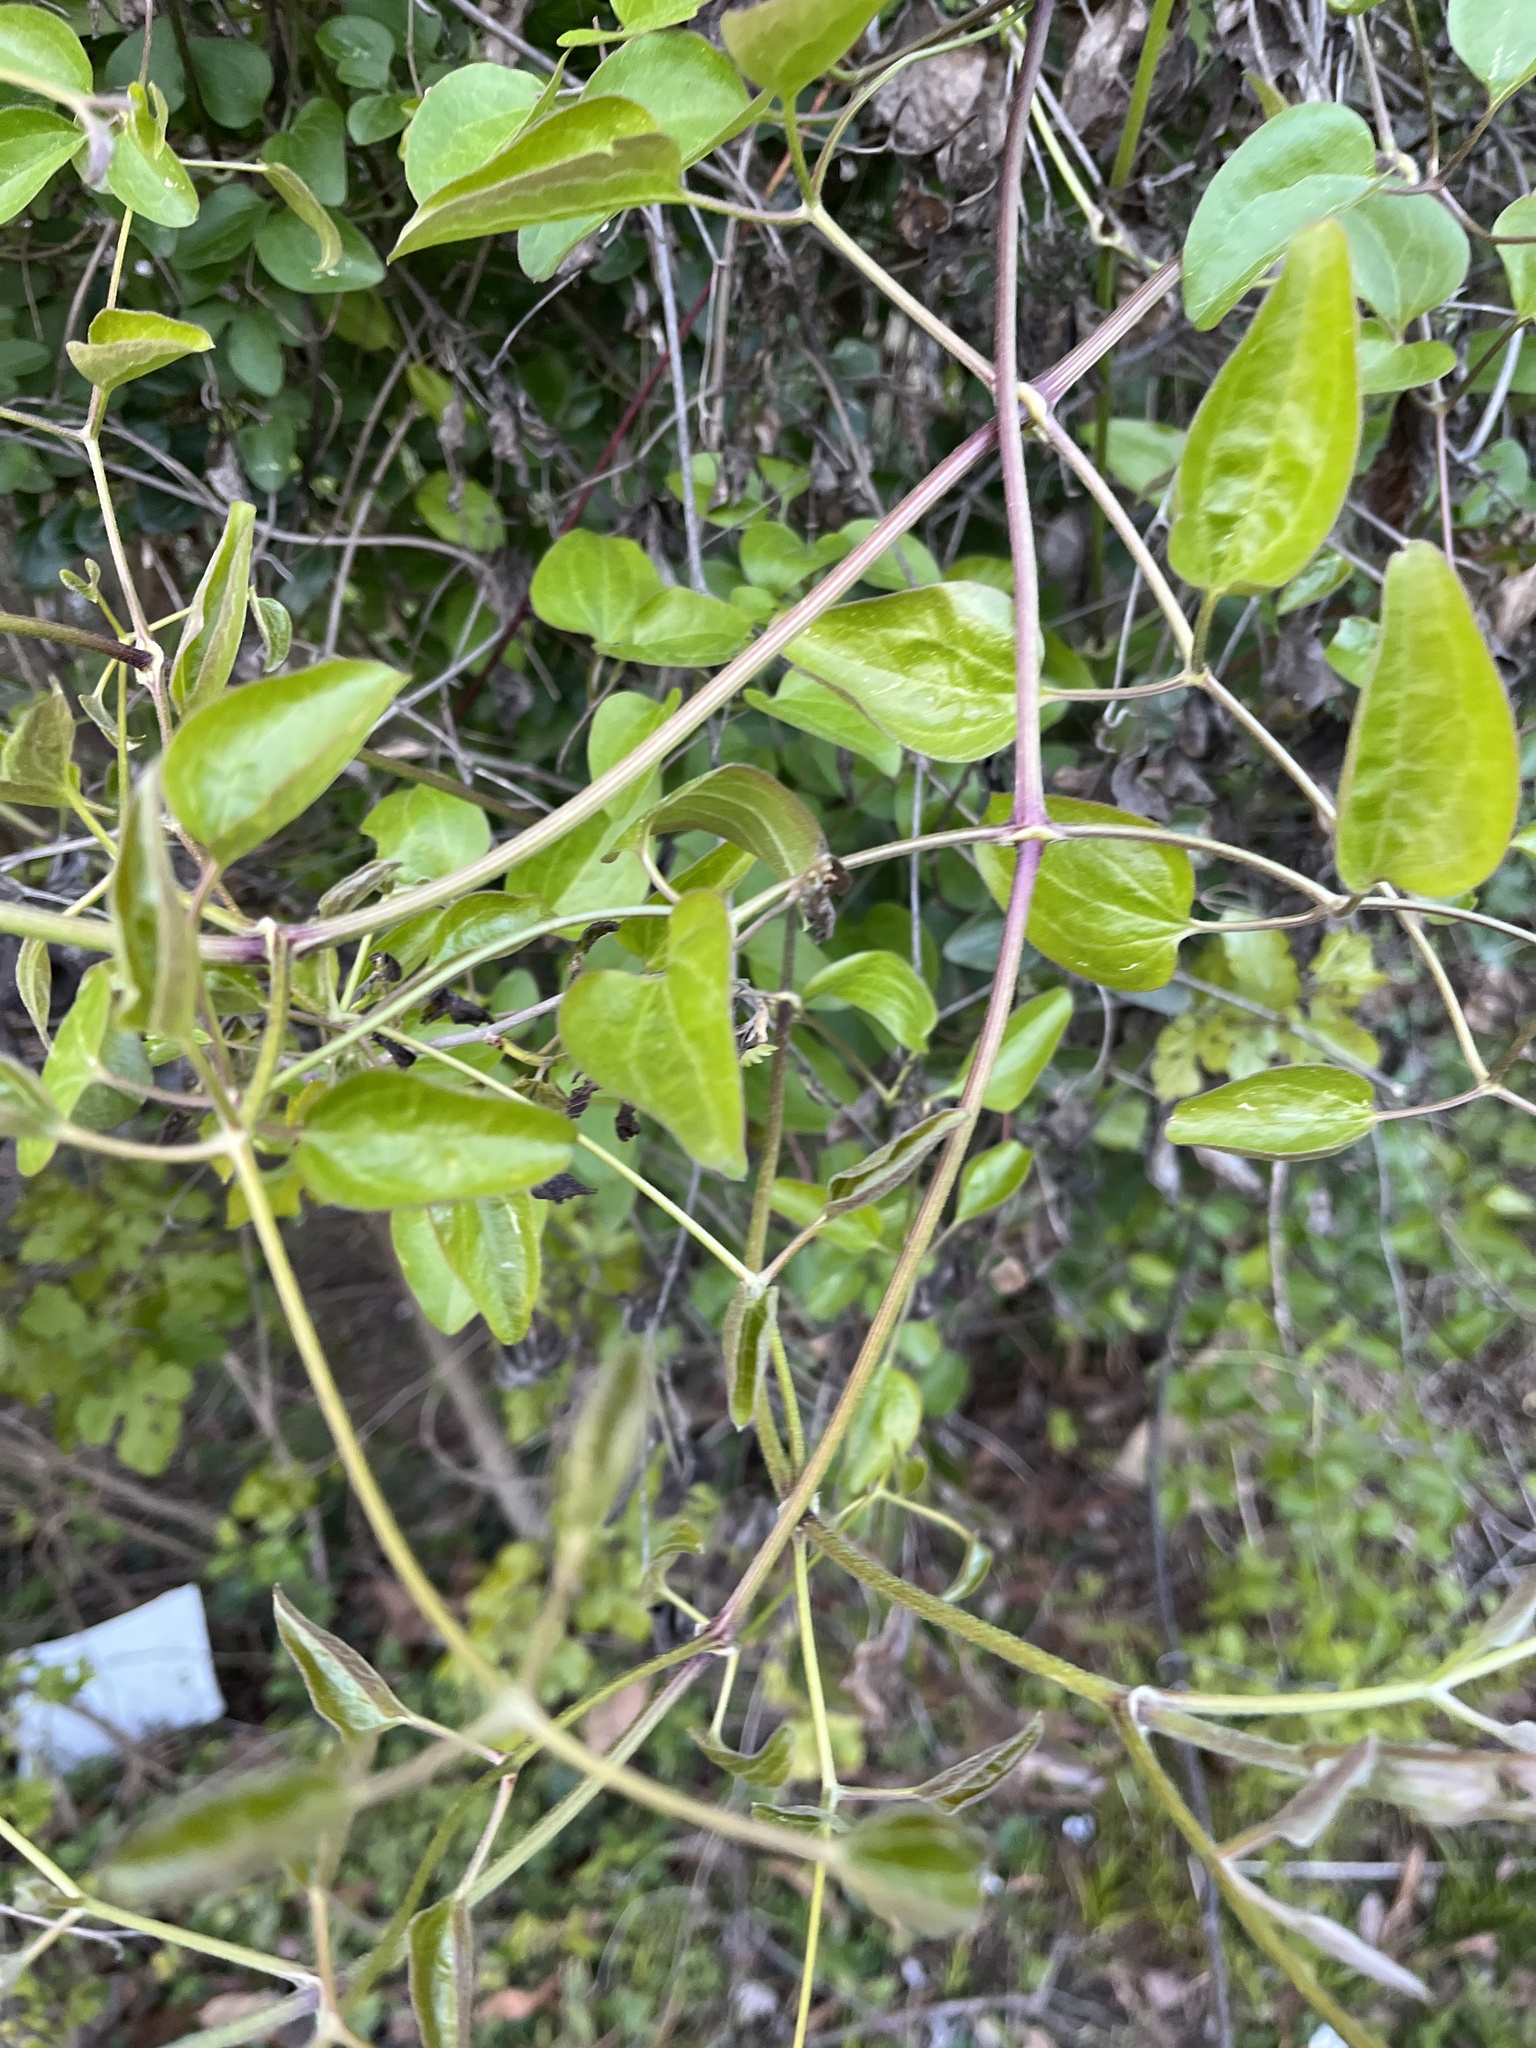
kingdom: Plantae
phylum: Tracheophyta
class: Magnoliopsida
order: Ranunculales
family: Ranunculaceae
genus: Clematis
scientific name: Clematis terniflora
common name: Sweet autumn clematis
